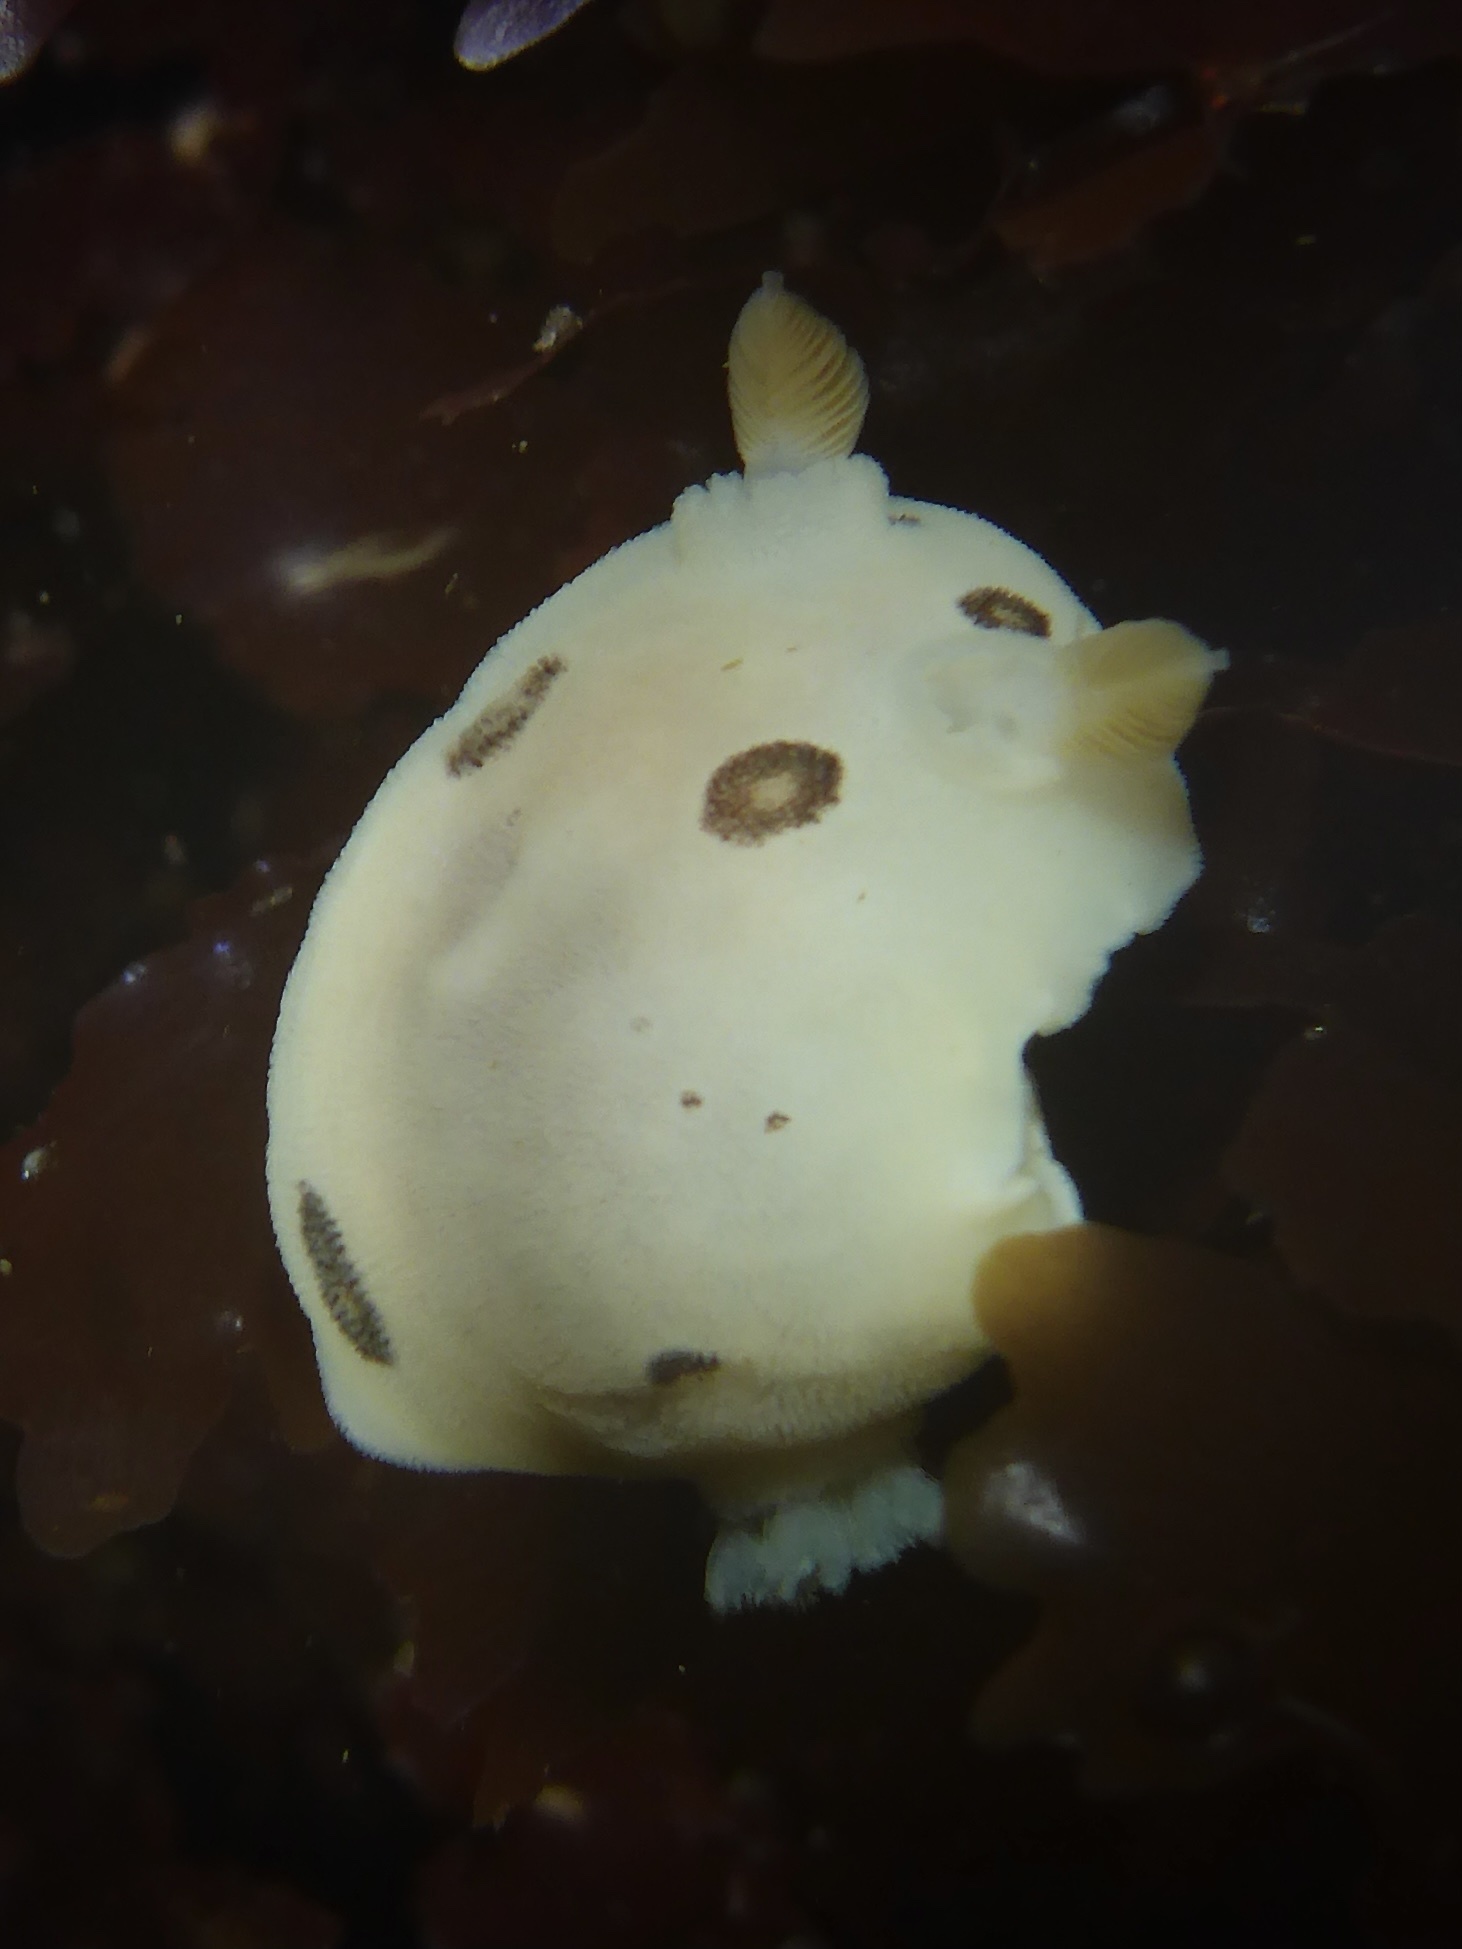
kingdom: Animalia
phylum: Mollusca
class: Gastropoda
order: Nudibranchia
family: Discodorididae
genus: Diaulula
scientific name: Diaulula sandiegensis
